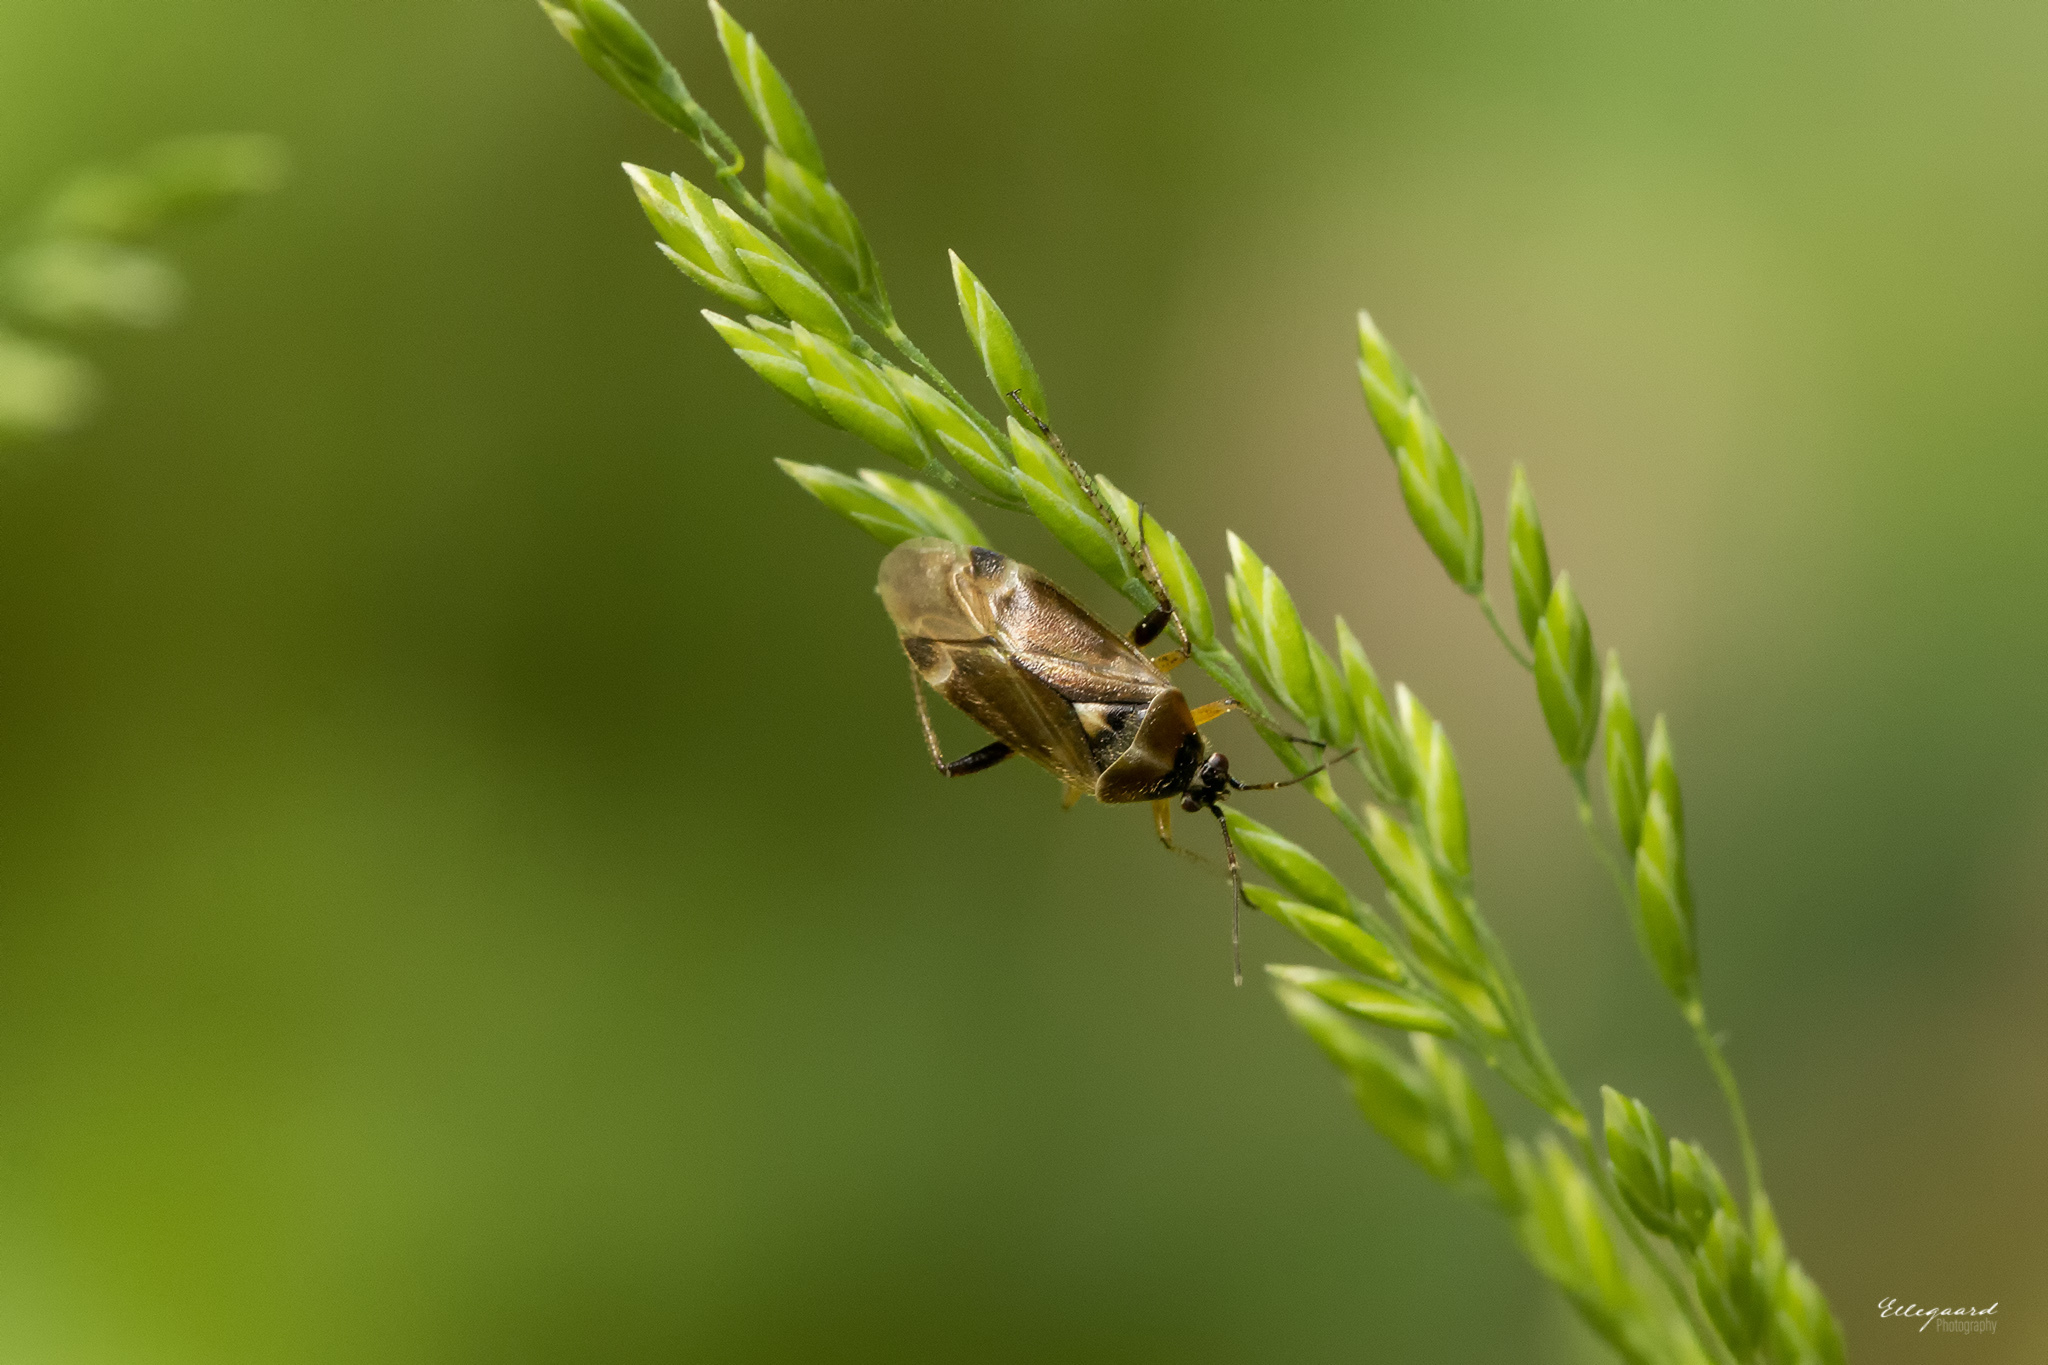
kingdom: Animalia
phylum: Arthropoda
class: Insecta
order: Hemiptera
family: Miridae
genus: Harpocera
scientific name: Harpocera thoracica
